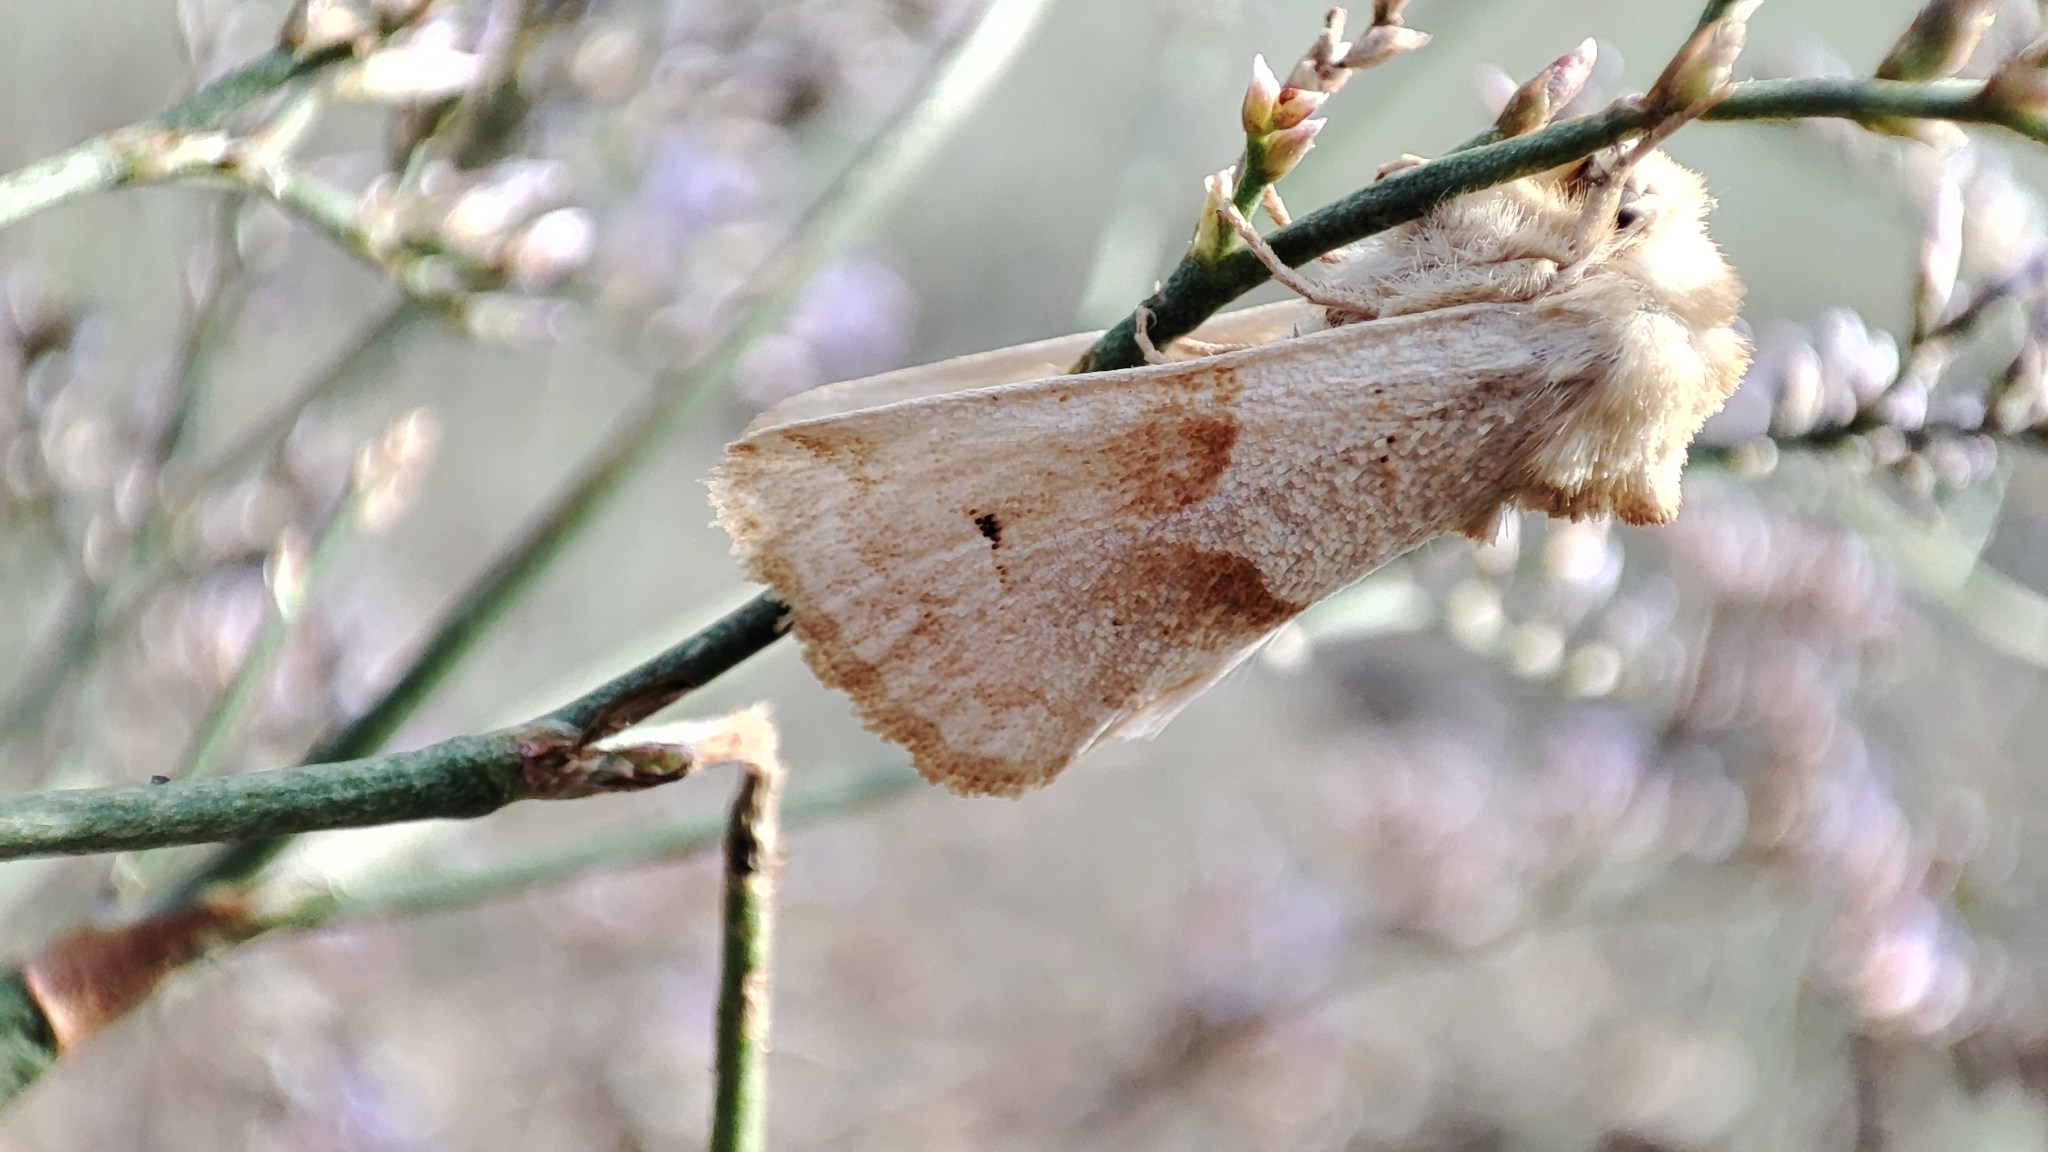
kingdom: Animalia
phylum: Arthropoda
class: Insecta
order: Lepidoptera
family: Noctuidae
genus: Mycteroplus
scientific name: Mycteroplus puniceago
